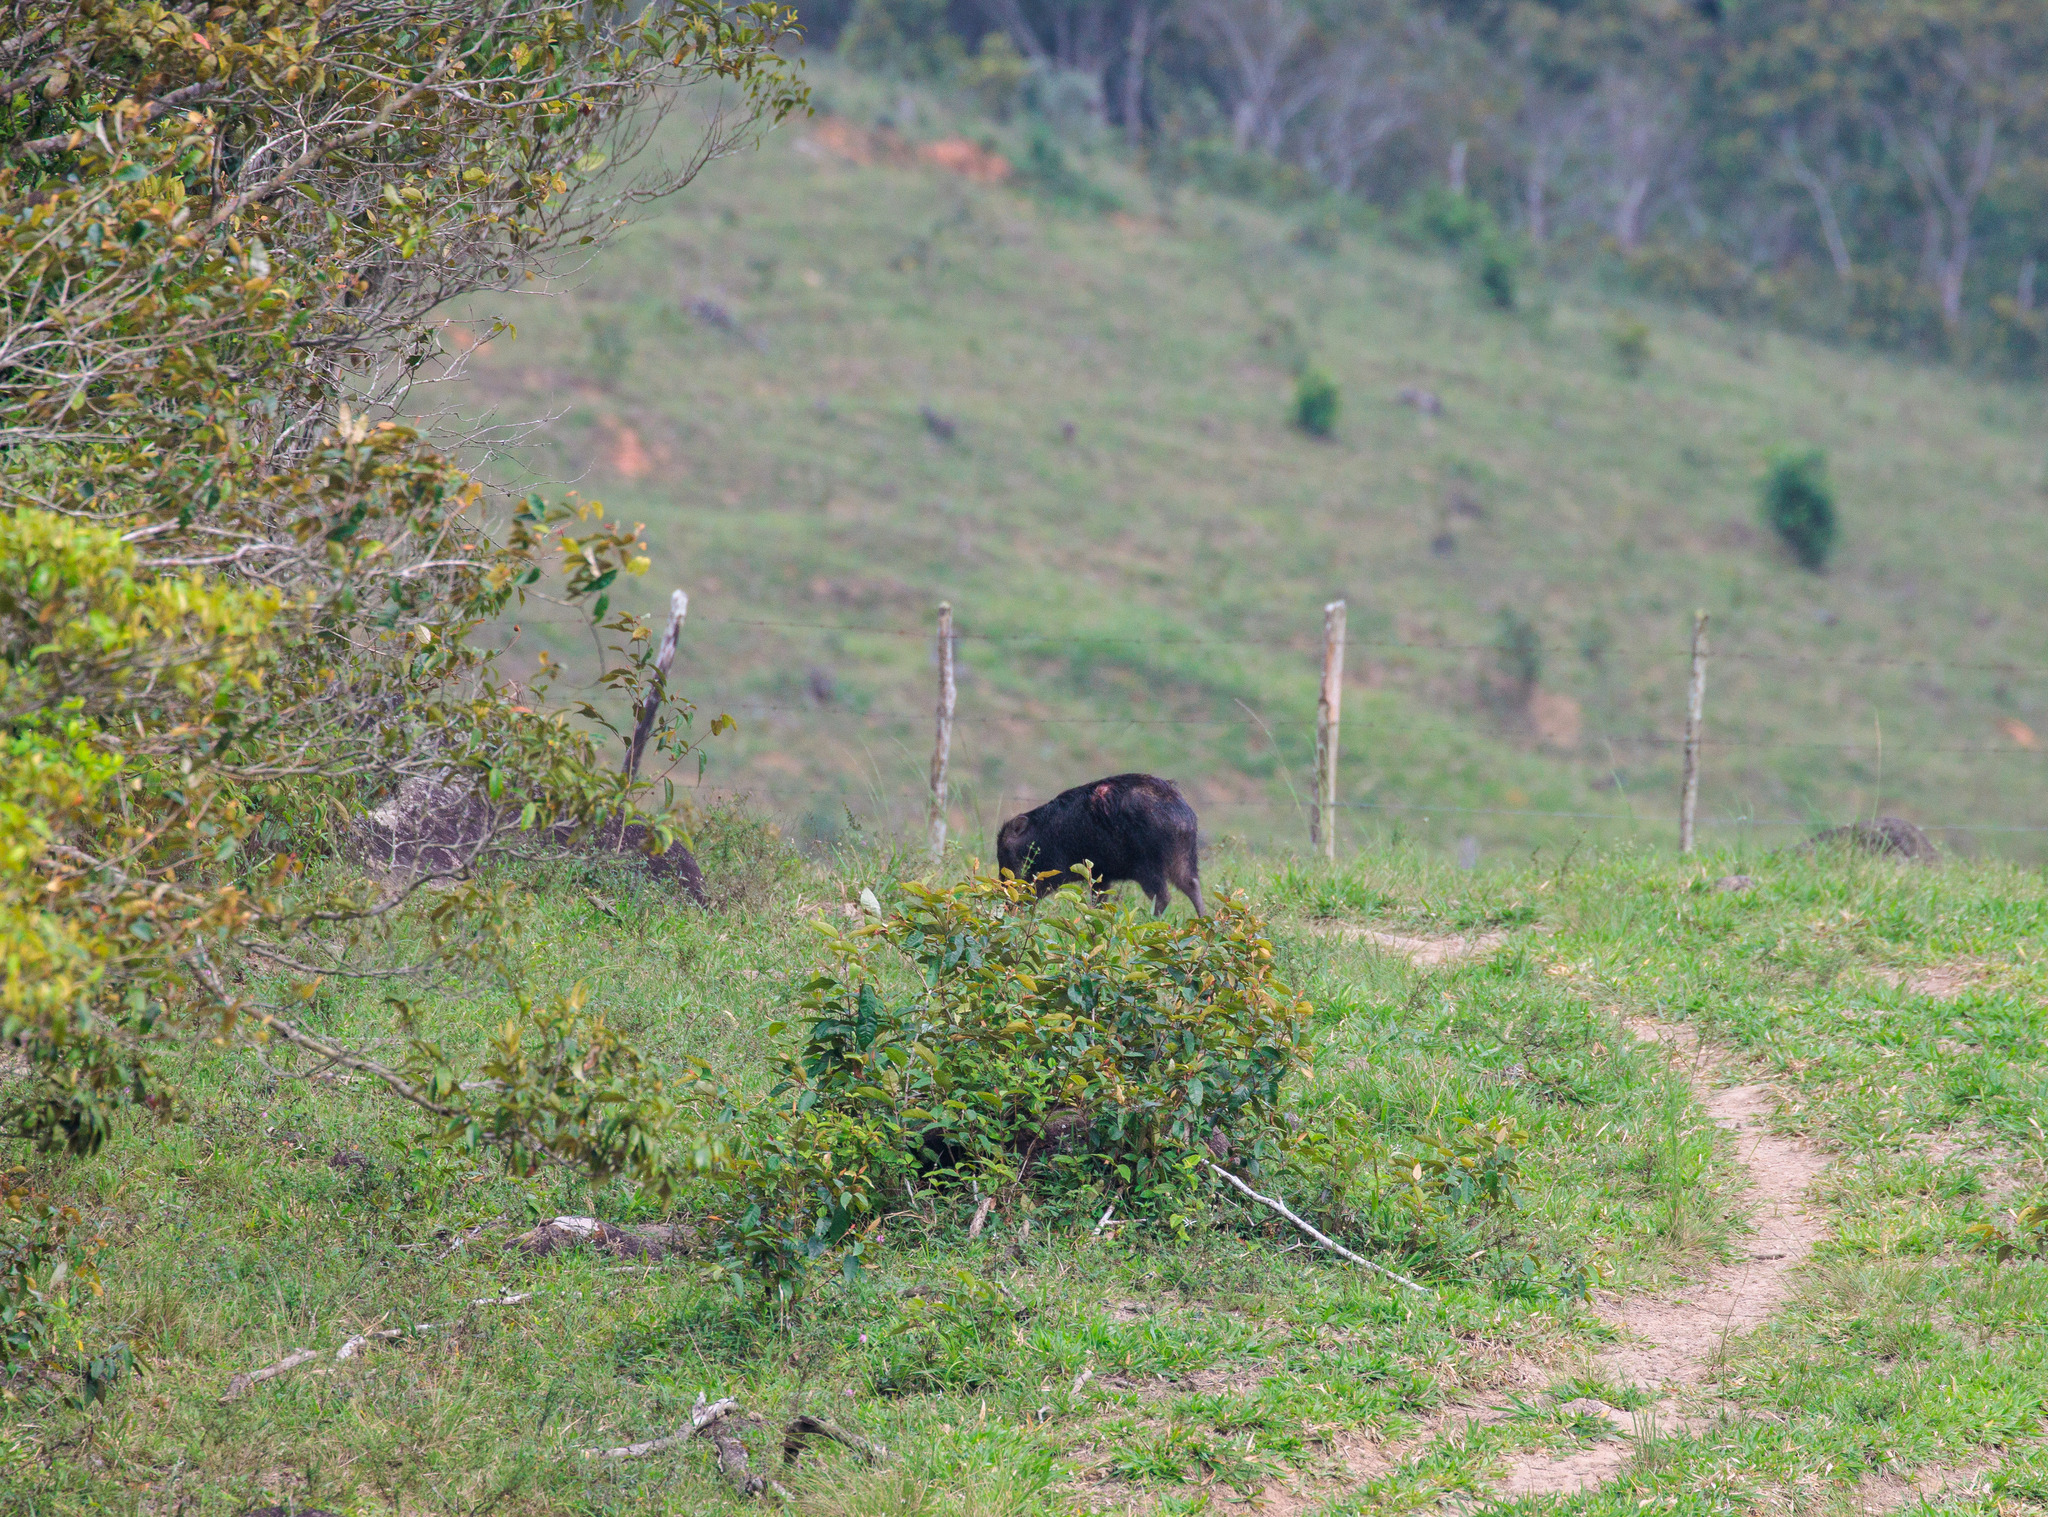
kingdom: Animalia
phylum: Chordata
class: Mammalia
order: Artiodactyla
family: Tayassuidae
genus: Tayassu
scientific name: Tayassu pecari
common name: White-lipped peccary
